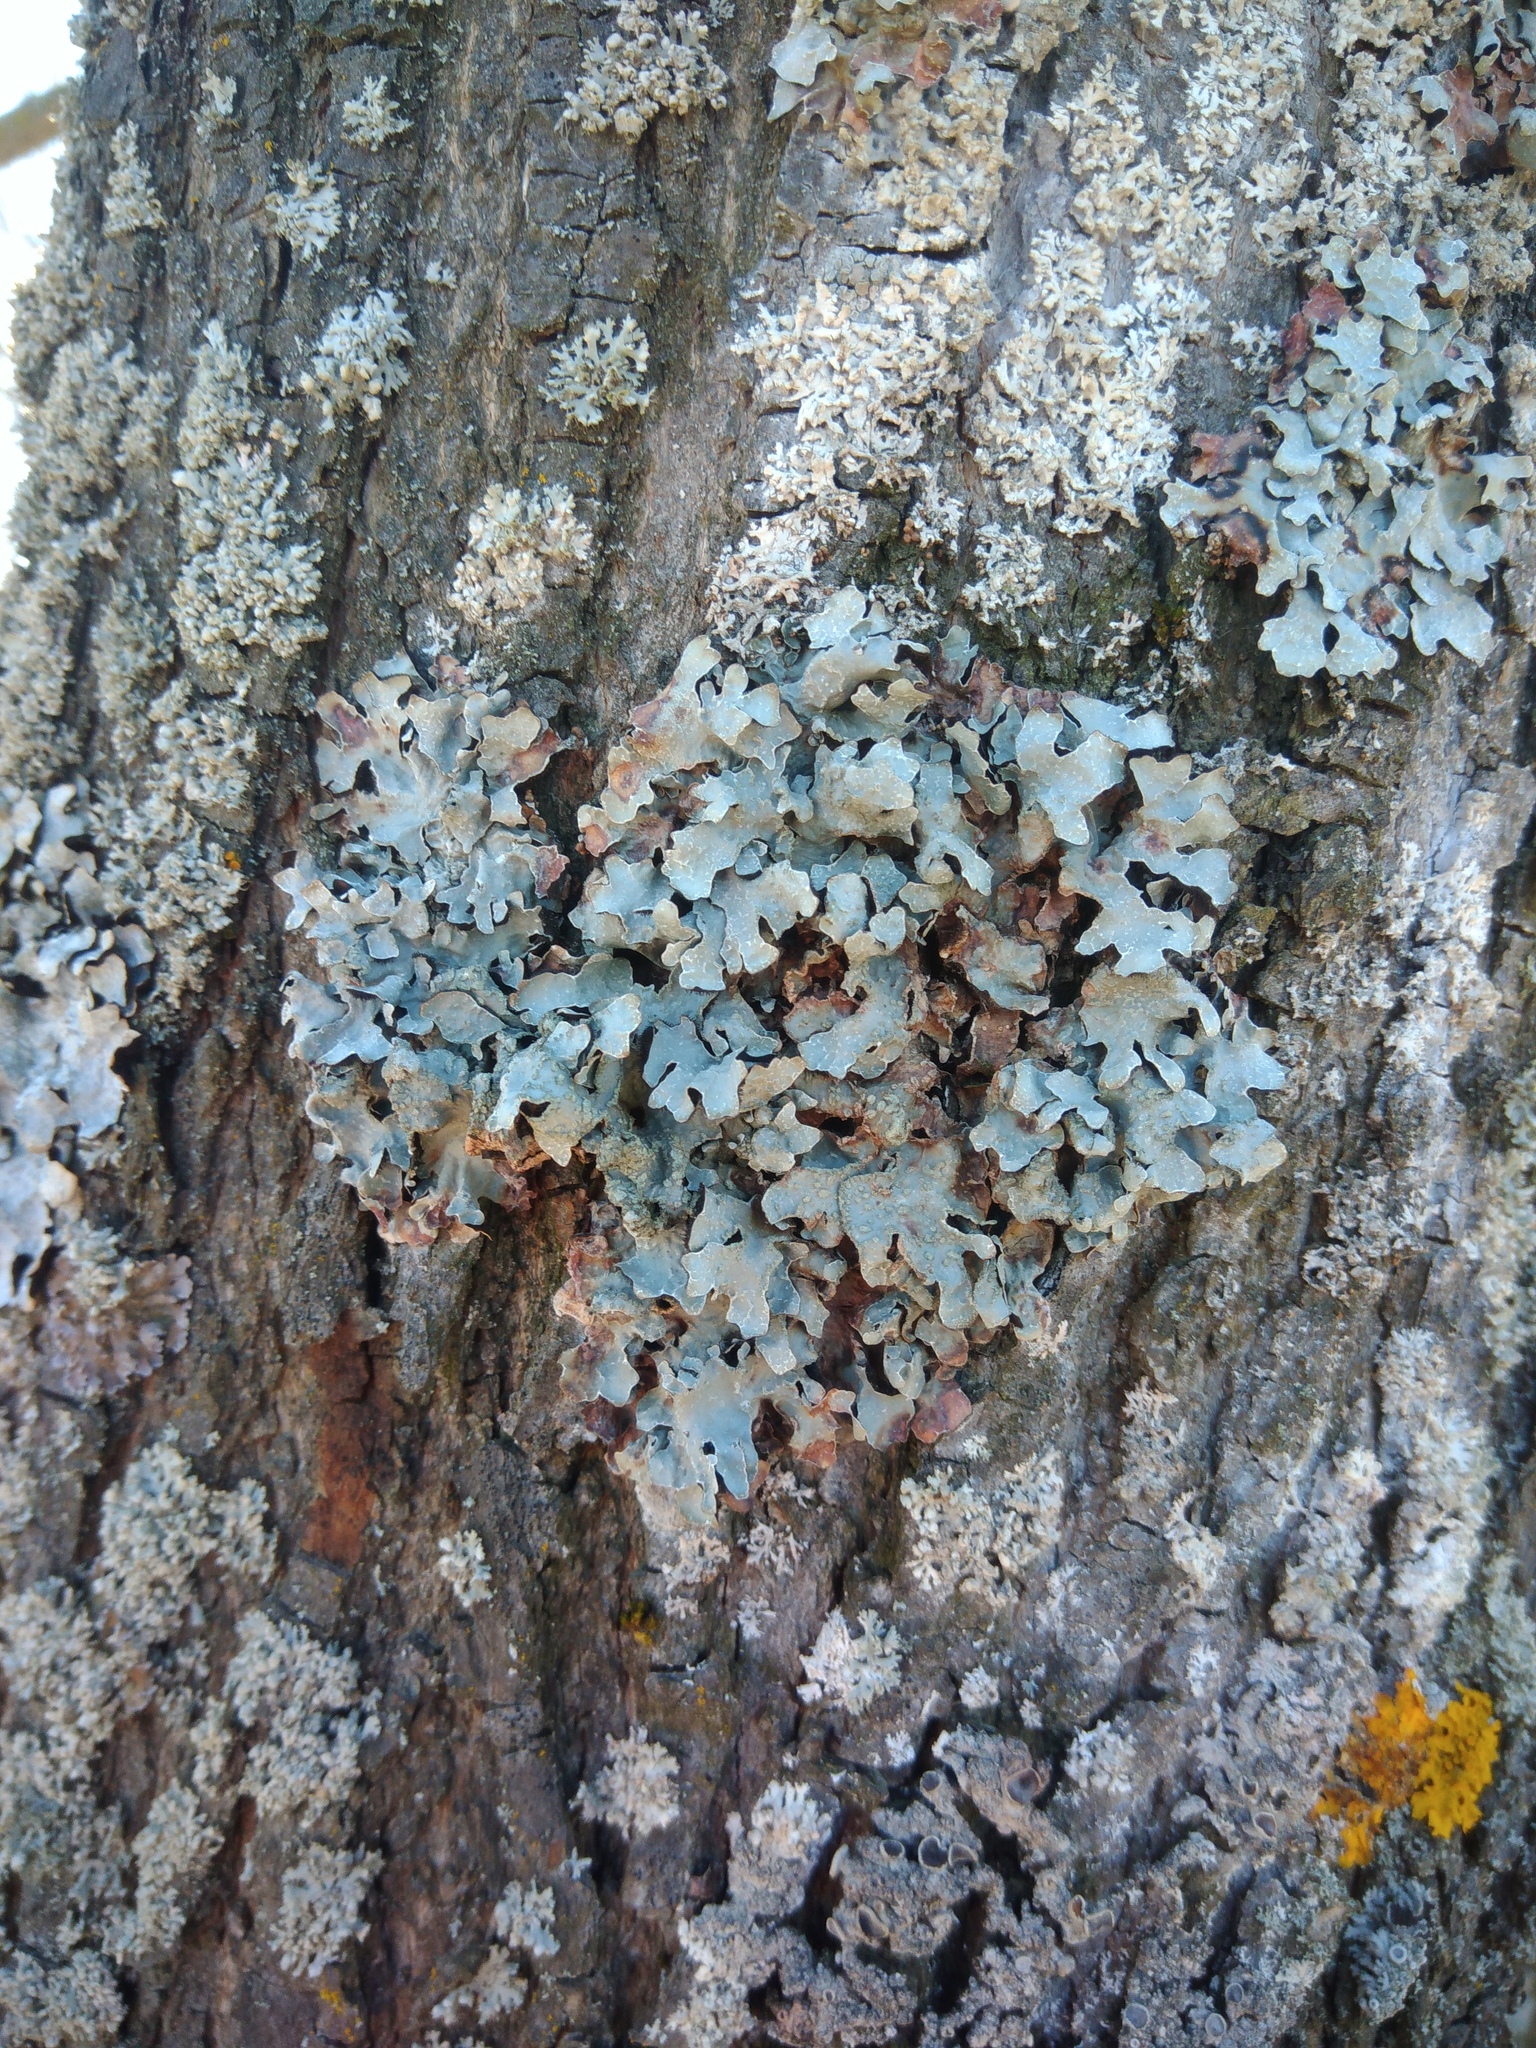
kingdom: Fungi
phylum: Ascomycota
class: Lecanoromycetes
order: Lecanorales
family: Parmeliaceae
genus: Parmelia
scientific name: Parmelia sulcata
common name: Netted shield lichen
